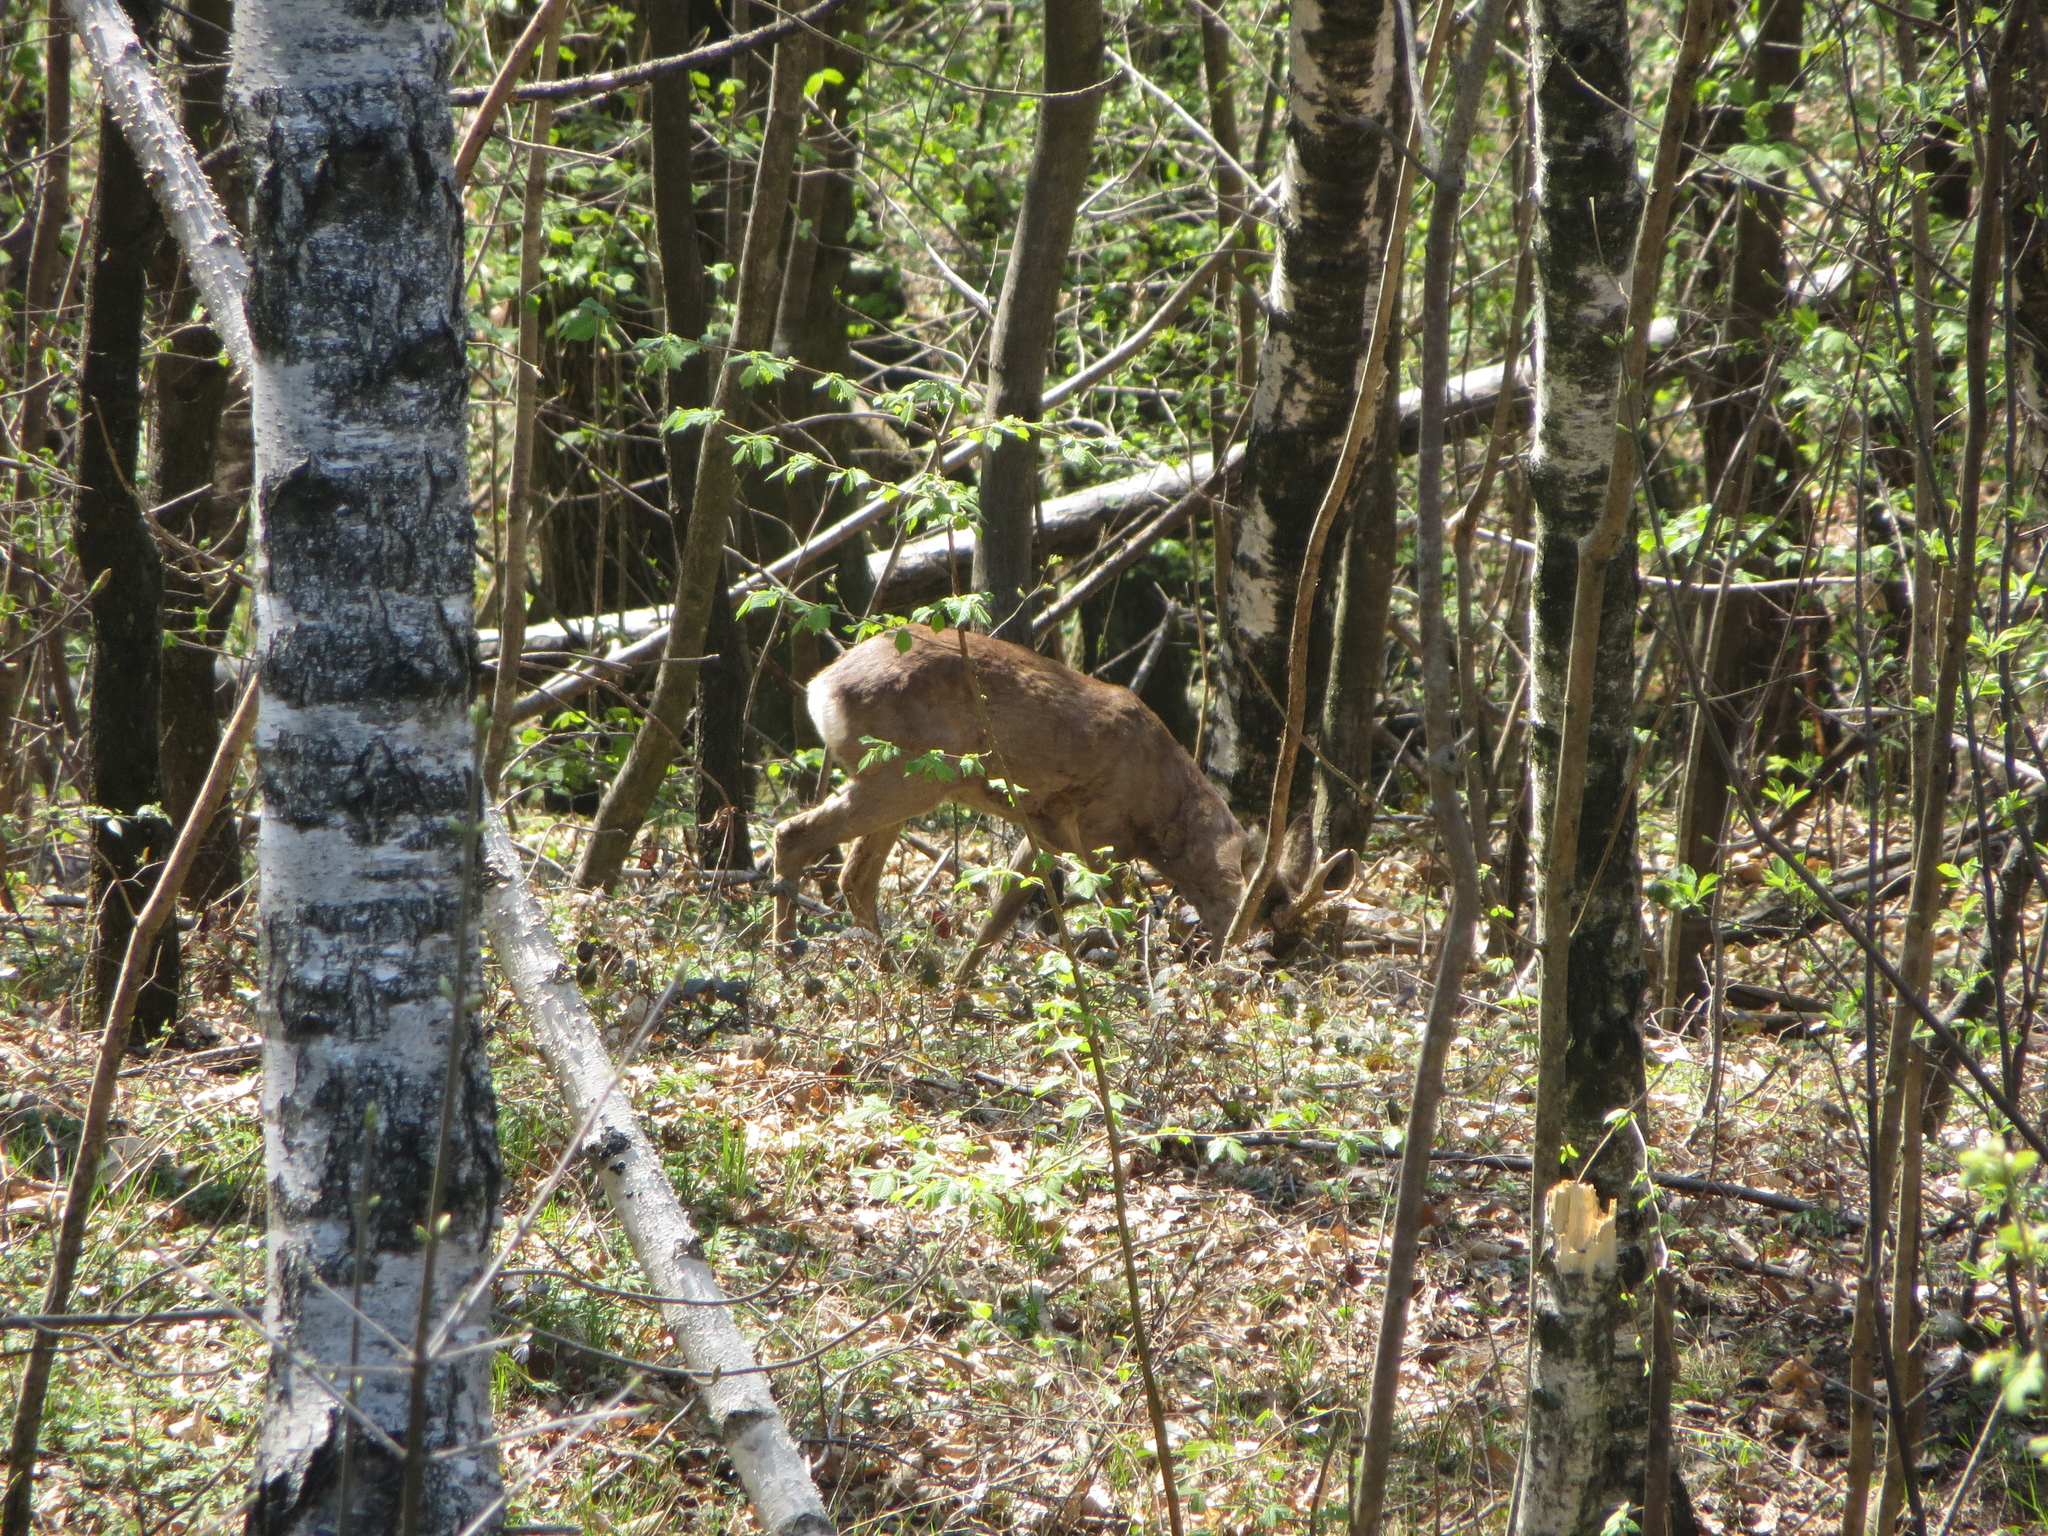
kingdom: Animalia
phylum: Chordata
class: Mammalia
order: Artiodactyla
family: Cervidae
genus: Capreolus
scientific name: Capreolus capreolus
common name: Western roe deer
